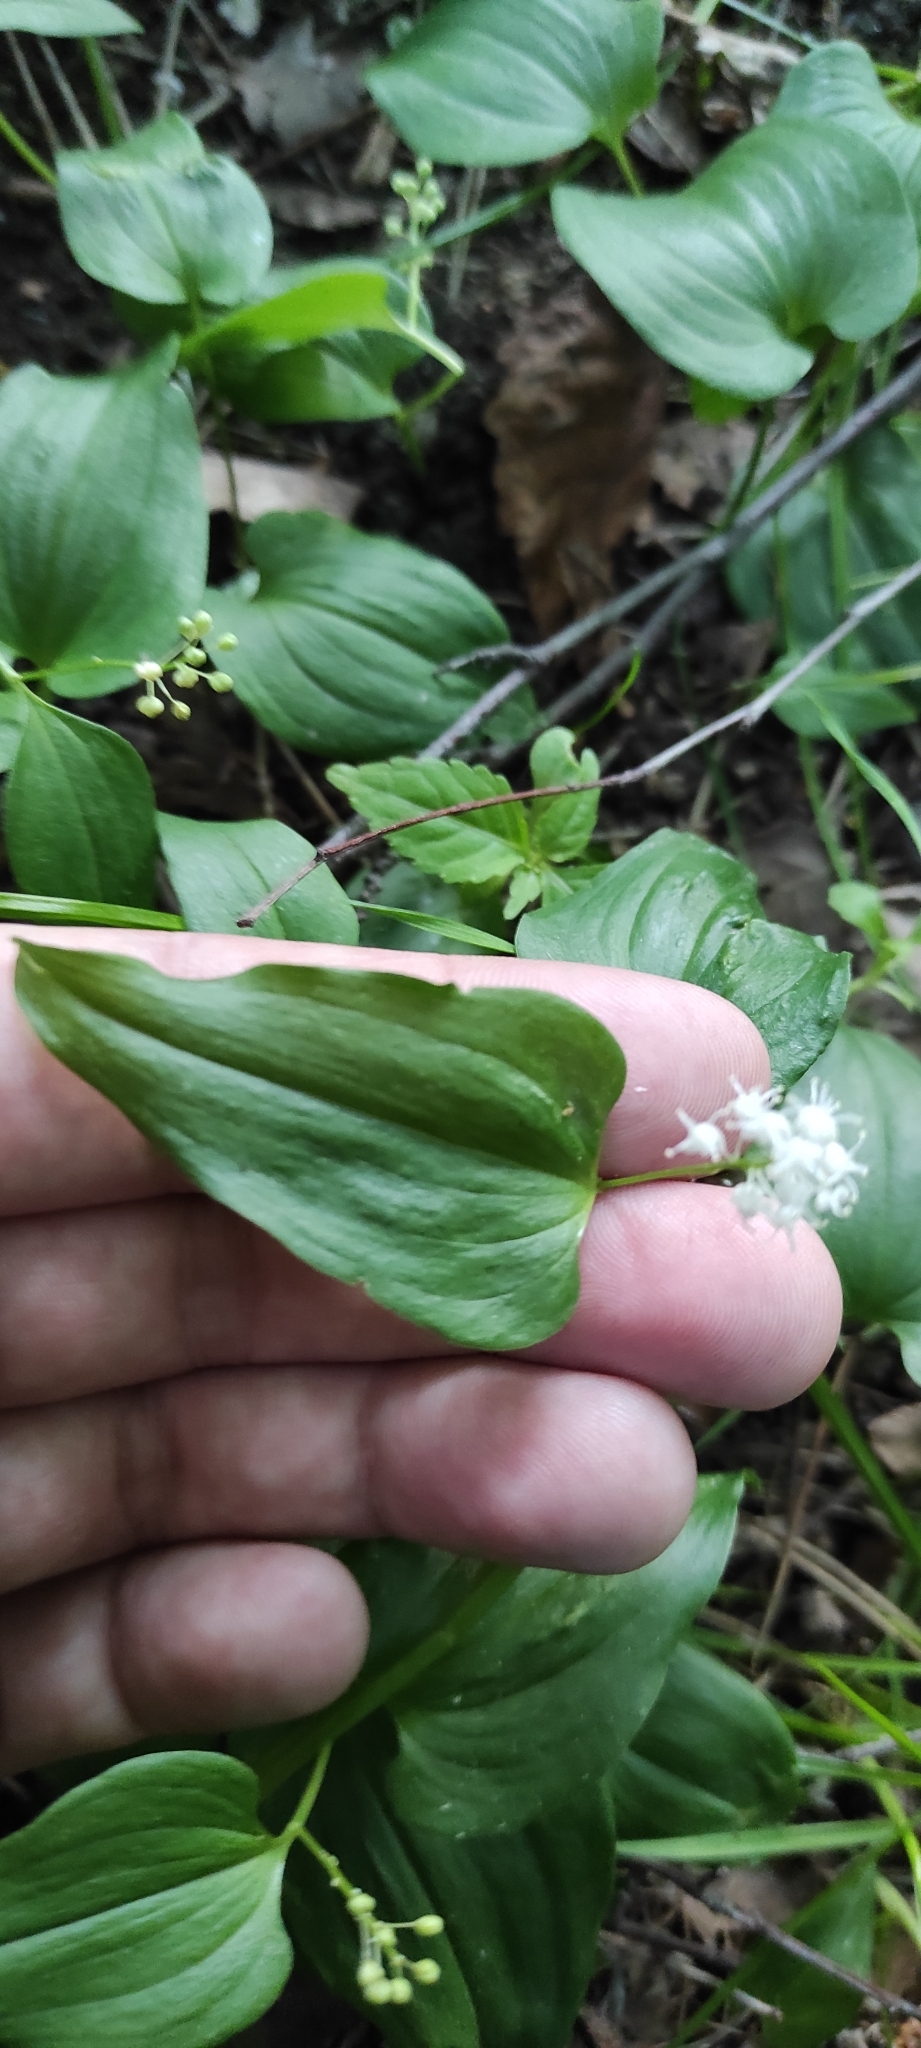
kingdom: Plantae
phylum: Tracheophyta
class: Liliopsida
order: Asparagales
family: Asparagaceae
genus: Maianthemum
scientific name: Maianthemum bifolium
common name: May lily
